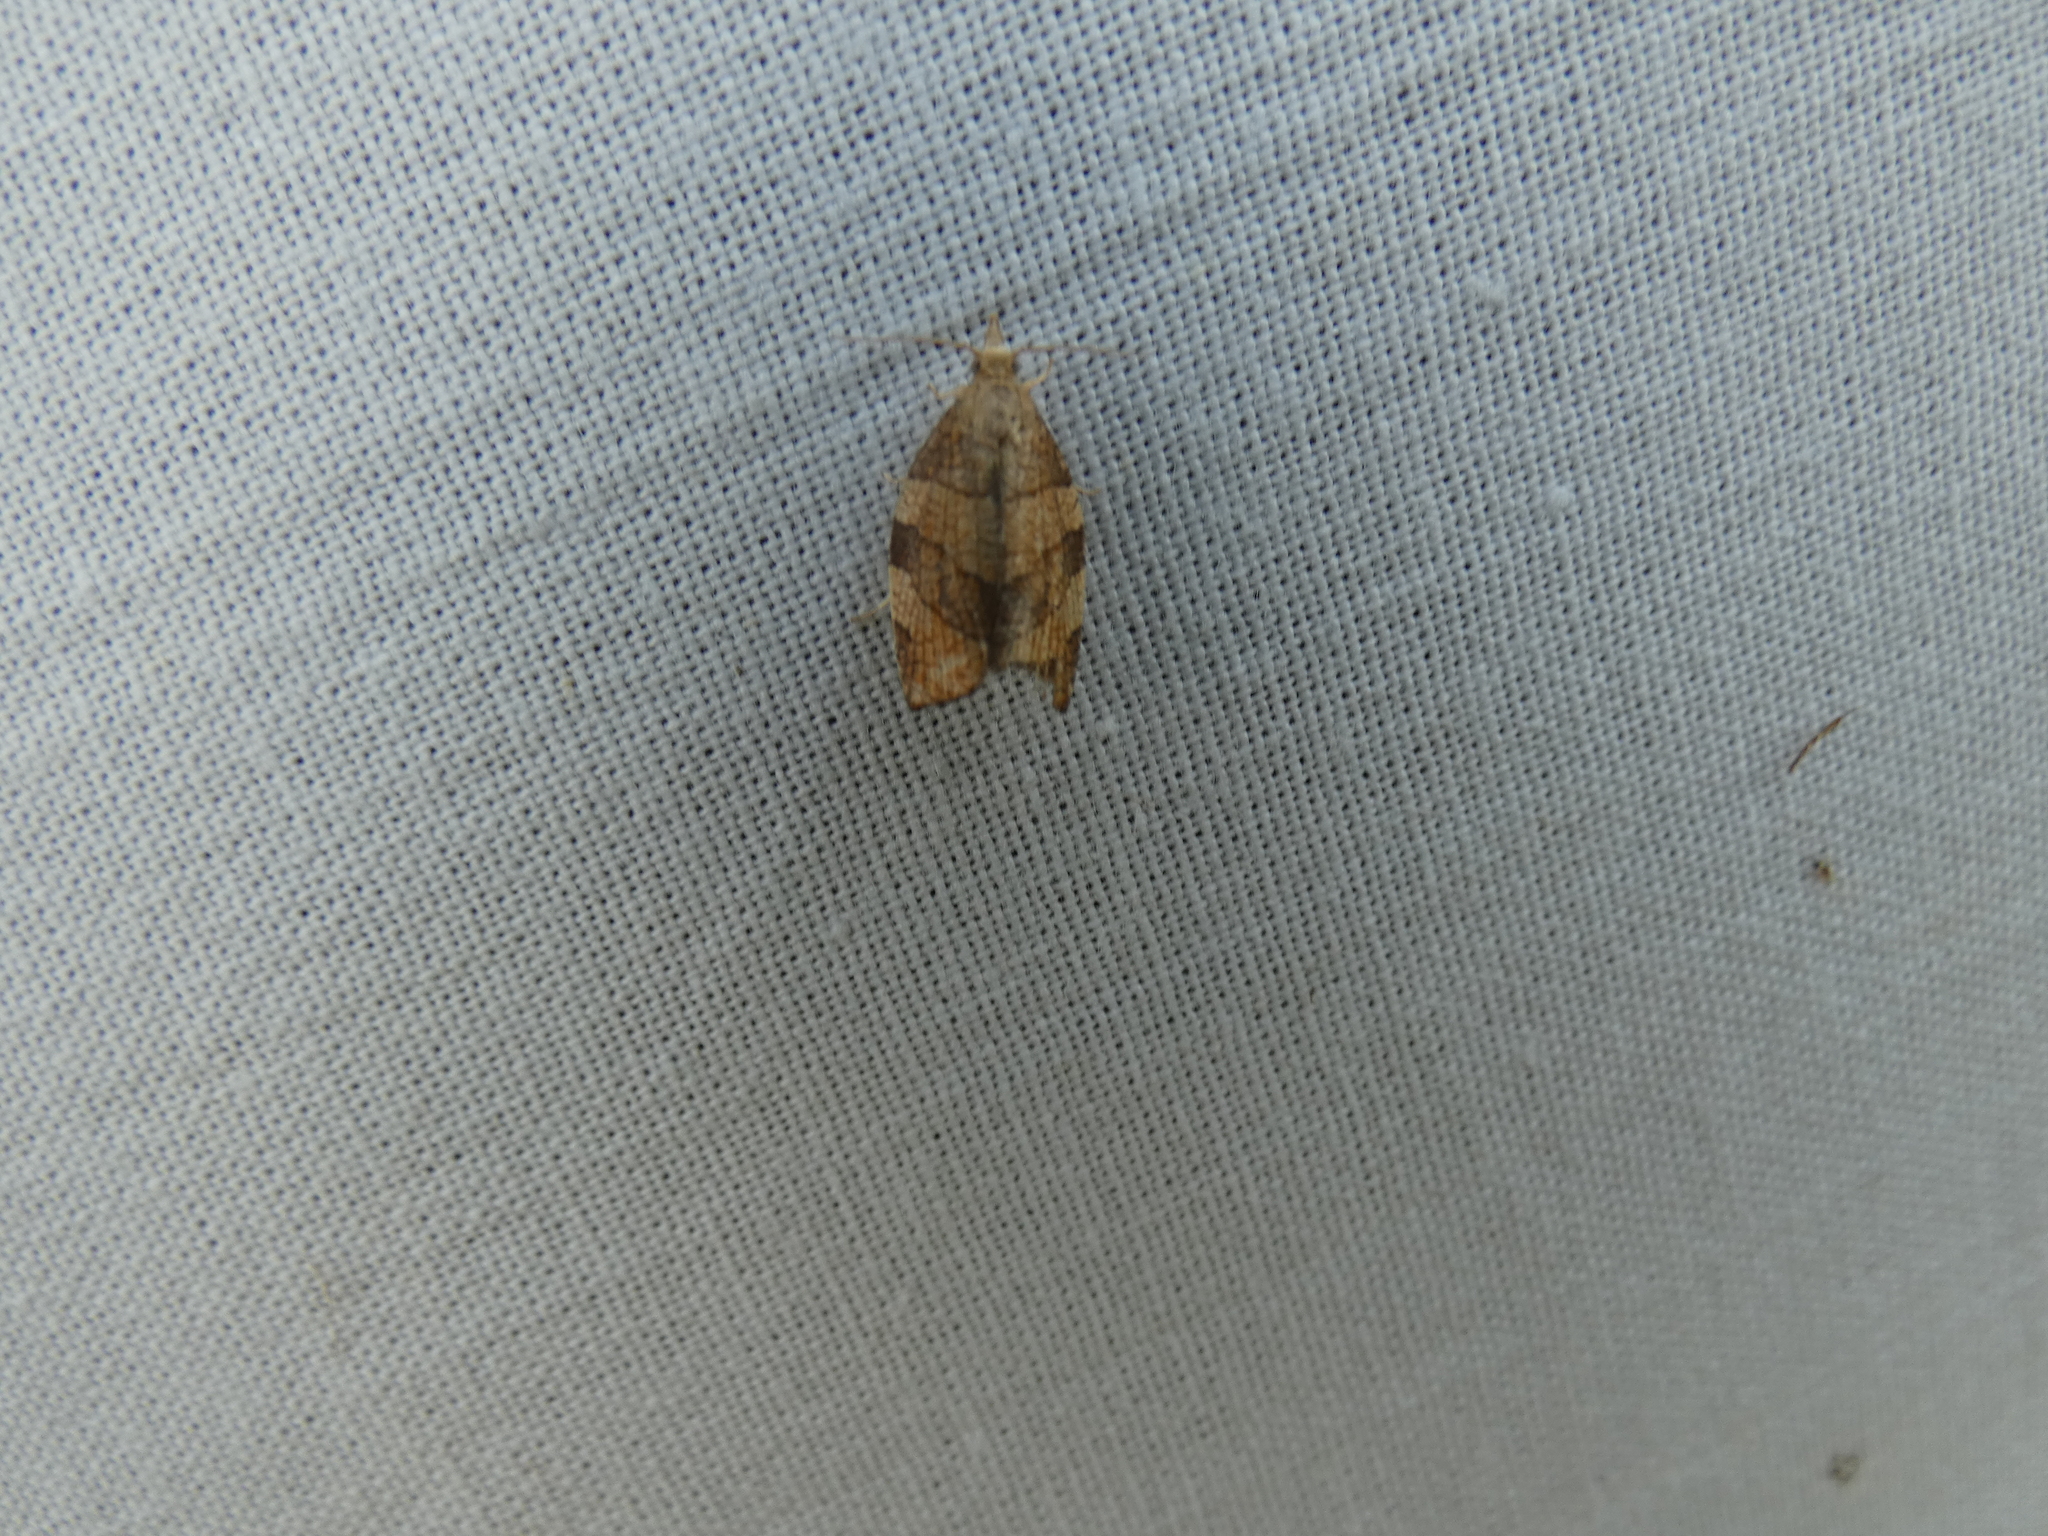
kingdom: Animalia
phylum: Arthropoda
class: Insecta
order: Lepidoptera
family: Tortricidae
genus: Pandemis
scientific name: Pandemis corylana
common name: Chequered fruit-tree tortrix
